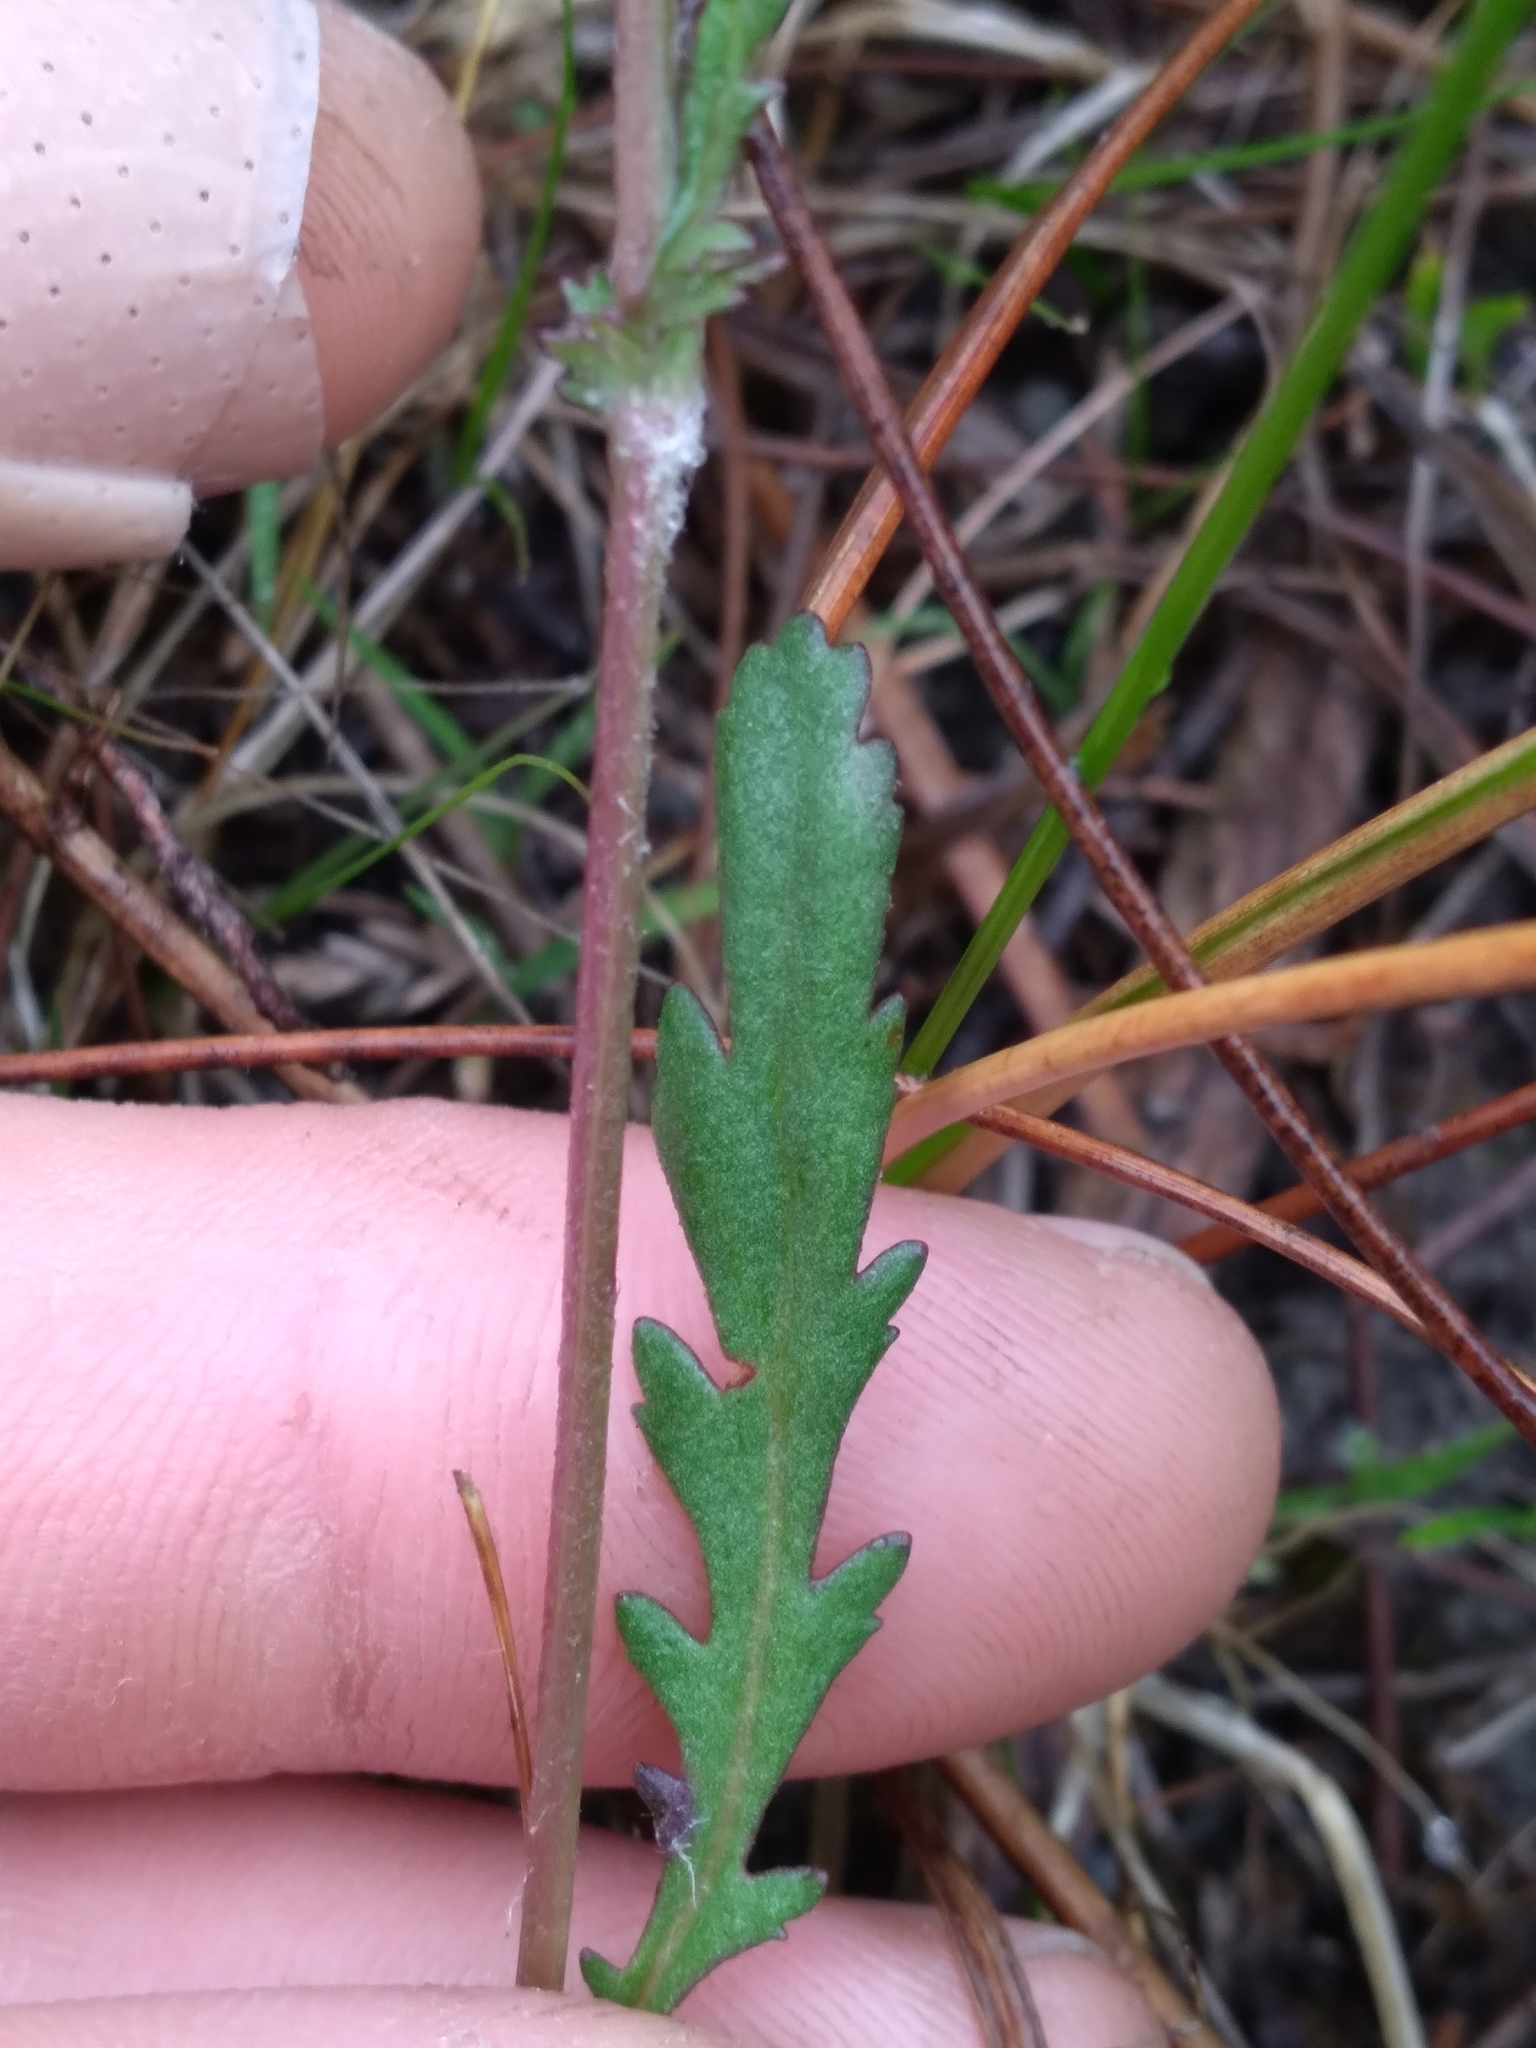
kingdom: Plantae
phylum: Tracheophyta
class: Magnoliopsida
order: Asterales
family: Asteraceae
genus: Packera
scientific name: Packera paupercula
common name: Balsam groundsel
